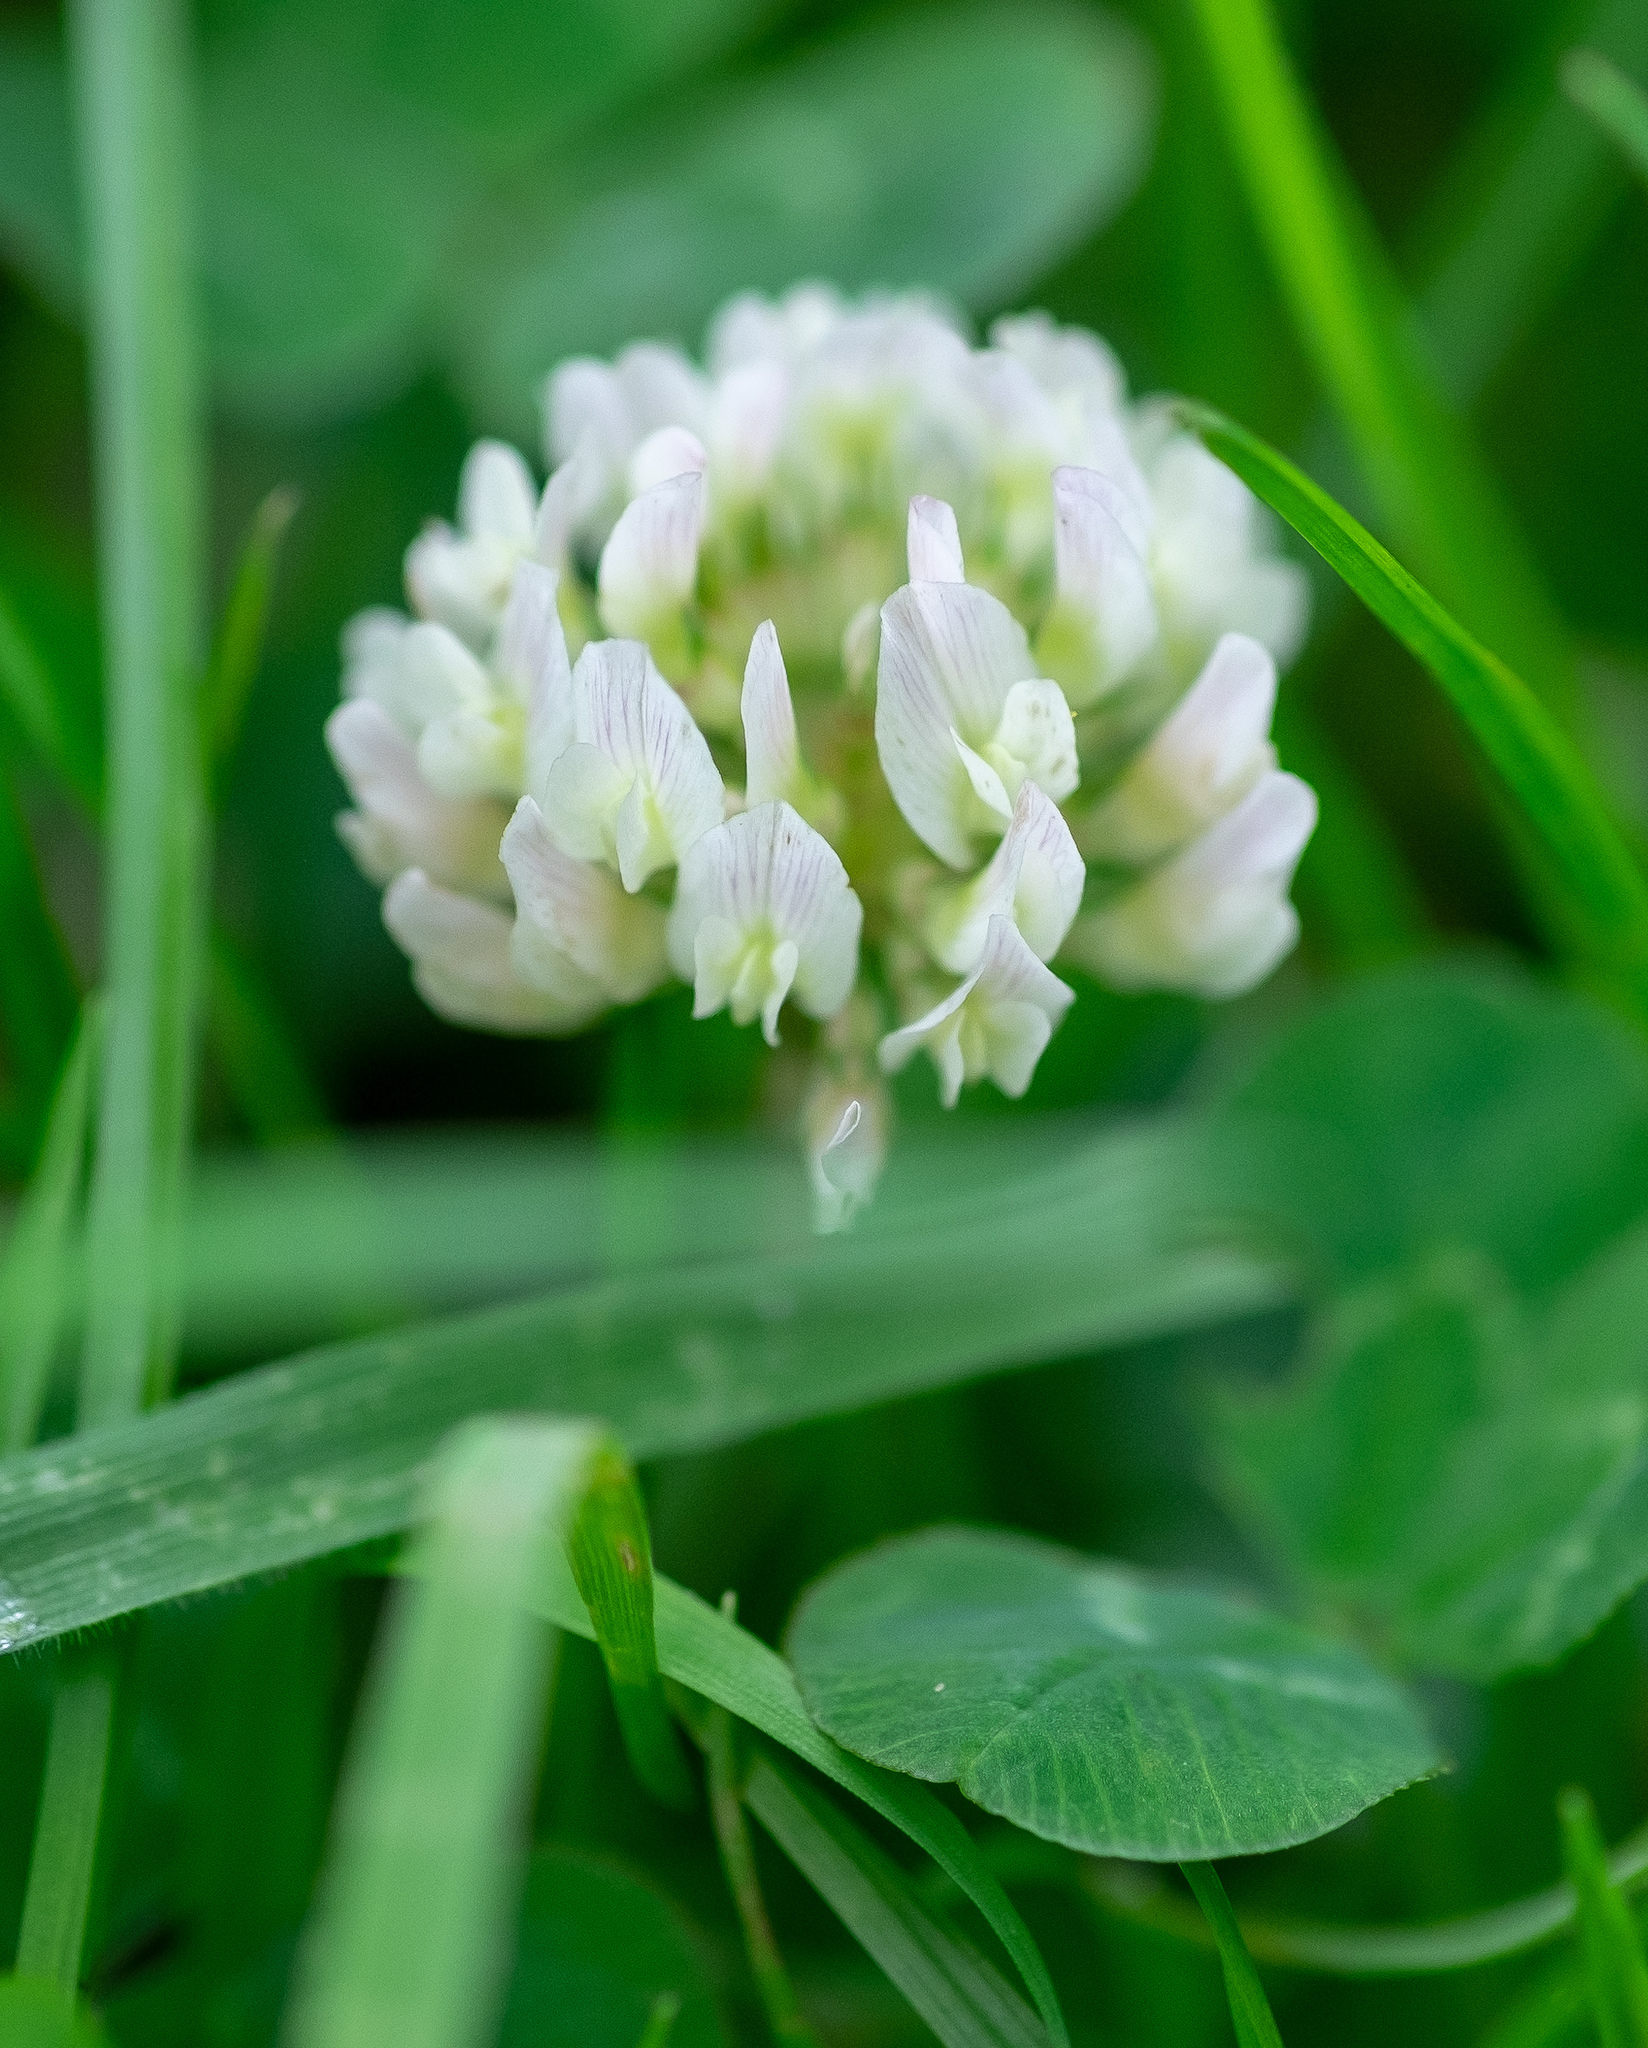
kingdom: Plantae
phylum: Tracheophyta
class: Magnoliopsida
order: Fabales
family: Fabaceae
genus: Trifolium
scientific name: Trifolium repens
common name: White clover
